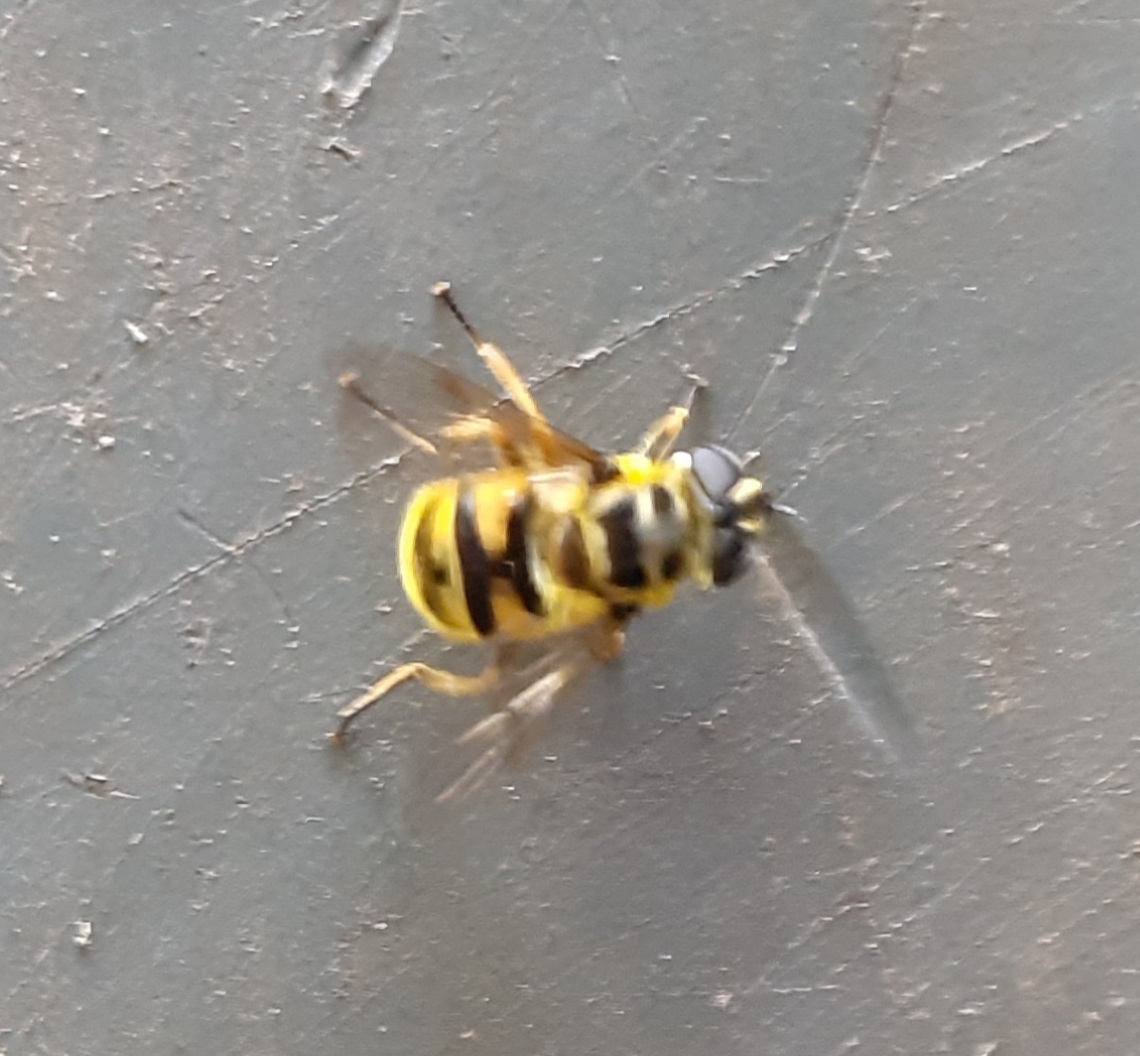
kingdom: Animalia
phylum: Arthropoda
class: Insecta
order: Diptera
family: Syrphidae
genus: Myathropa
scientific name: Myathropa florea
